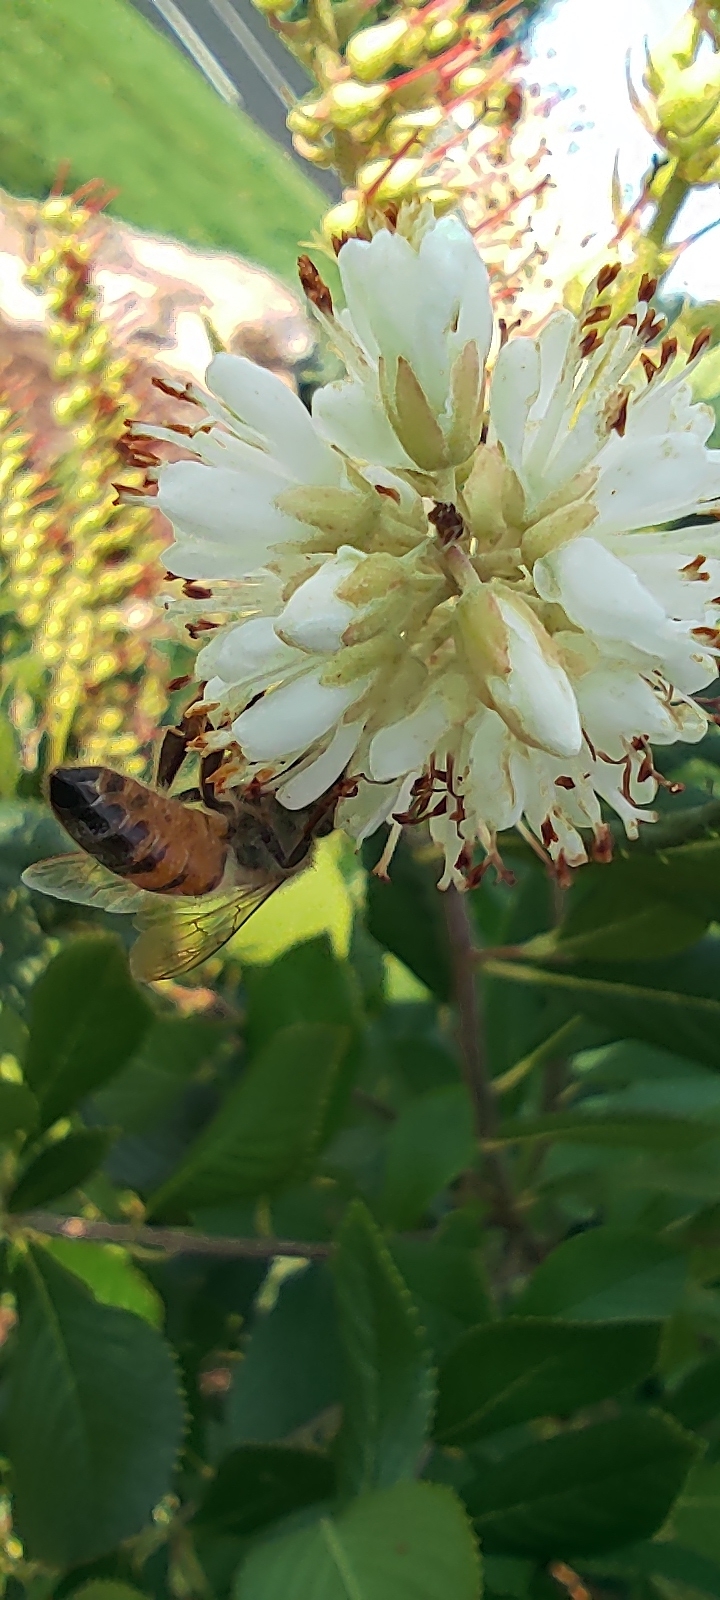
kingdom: Animalia
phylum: Arthropoda
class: Insecta
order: Hymenoptera
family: Apidae
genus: Apis
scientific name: Apis mellifera
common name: Honey bee
